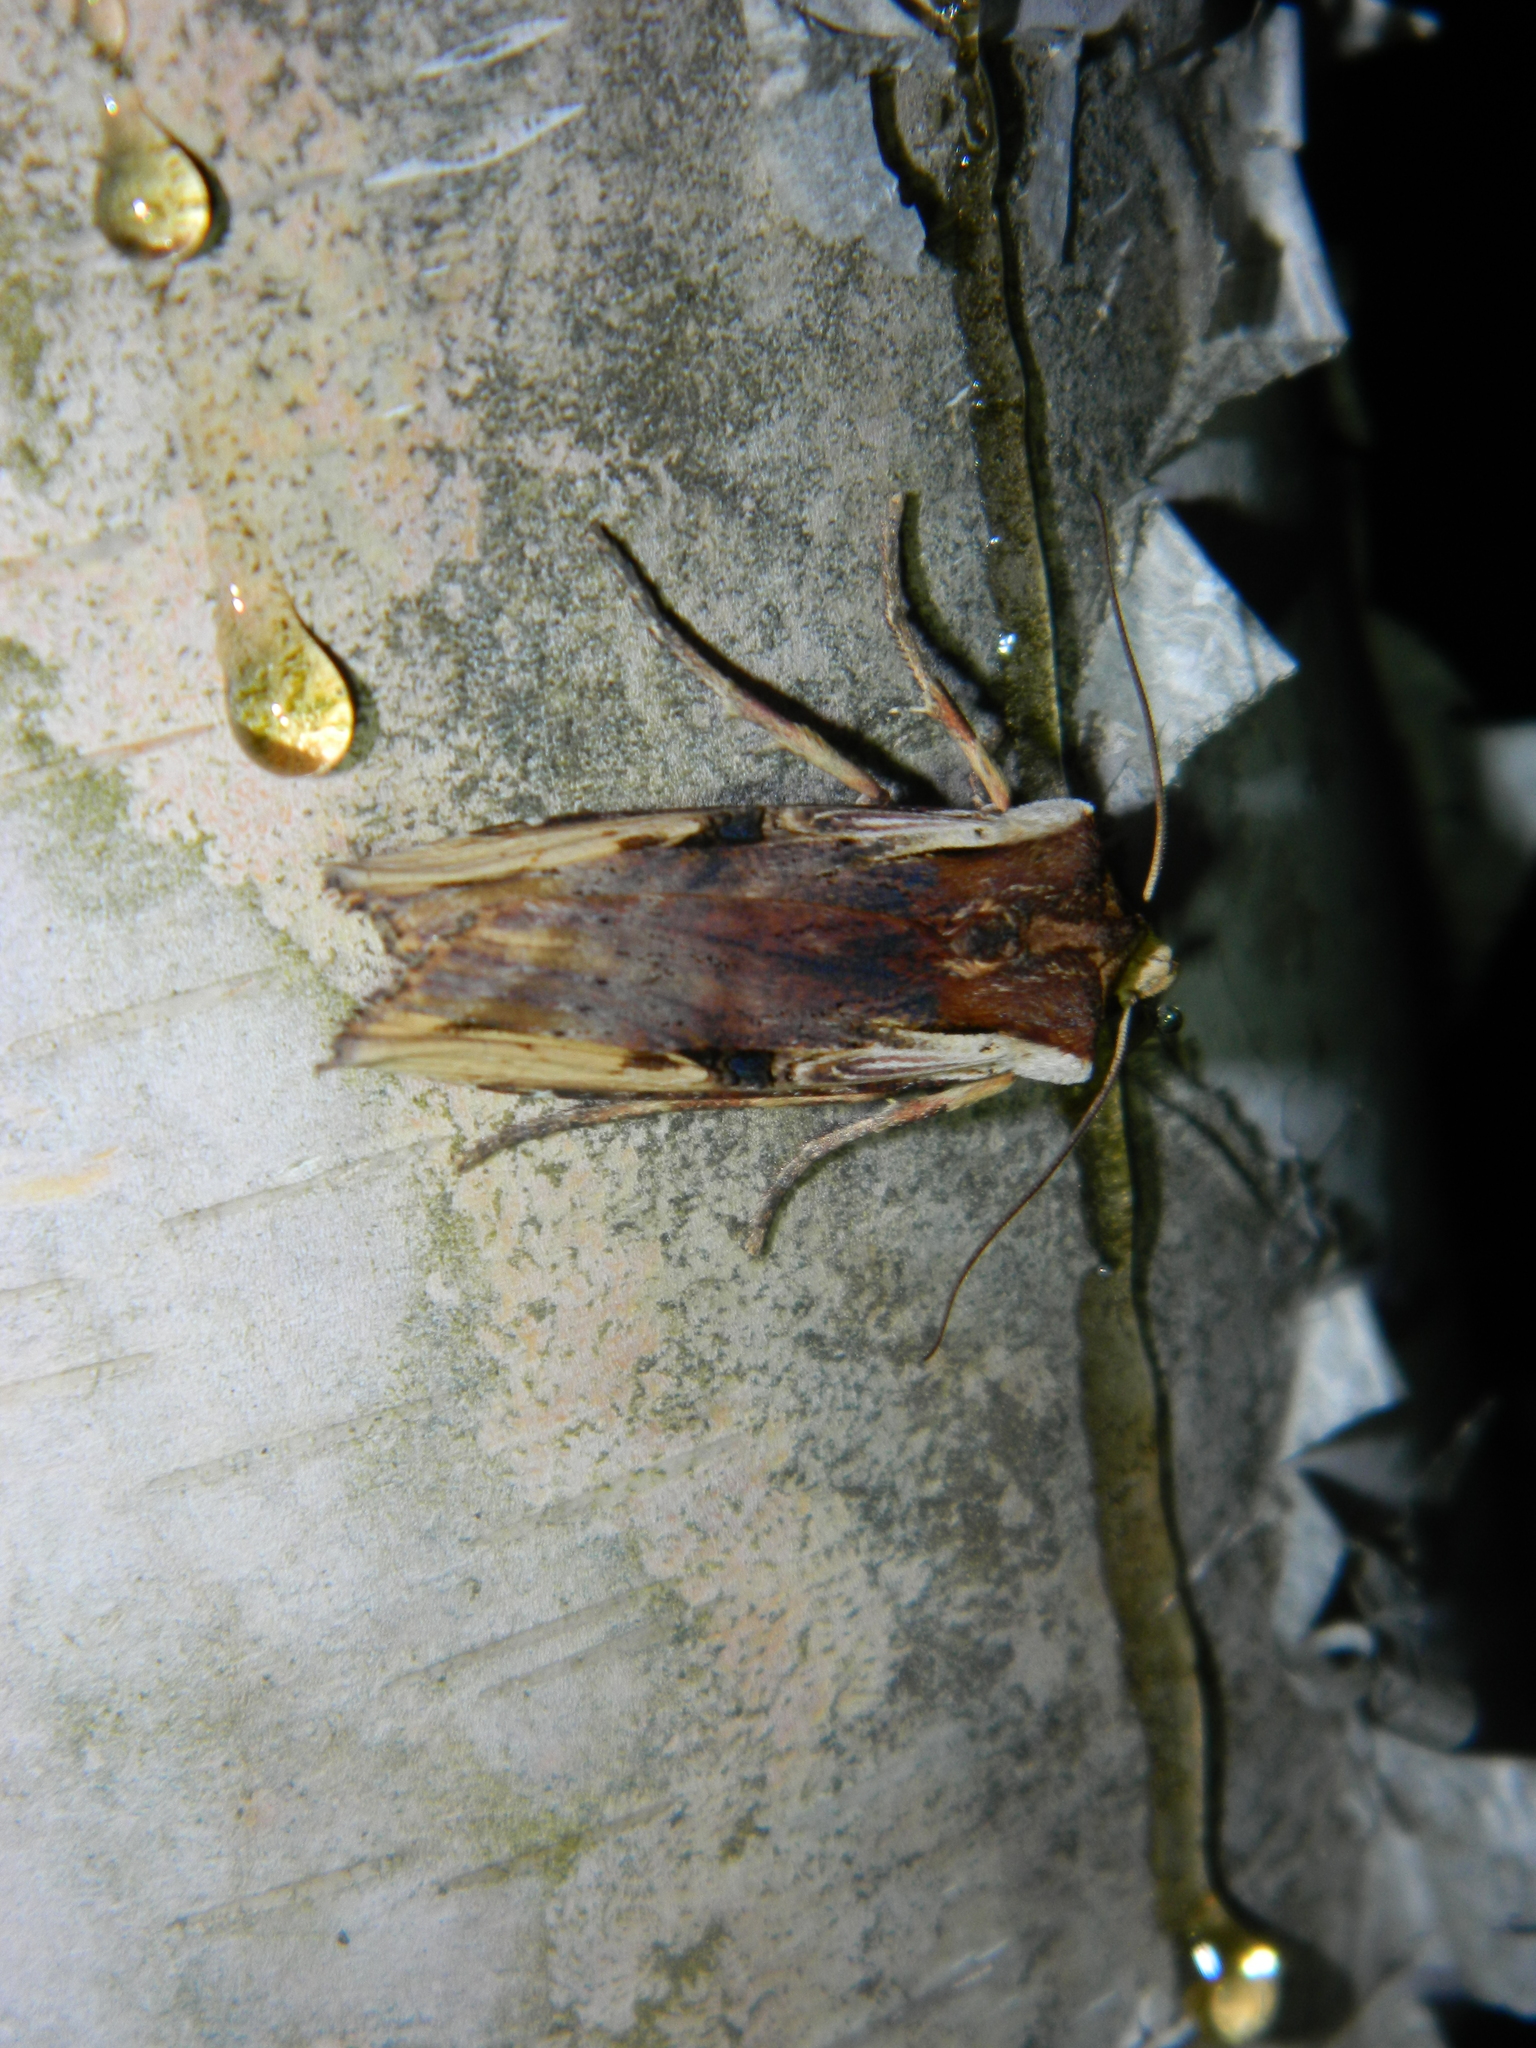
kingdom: Animalia
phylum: Arthropoda
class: Insecta
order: Lepidoptera
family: Noctuidae
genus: Xylena
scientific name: Xylena curvimacula
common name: Dot-and-dash swordgrass moth
